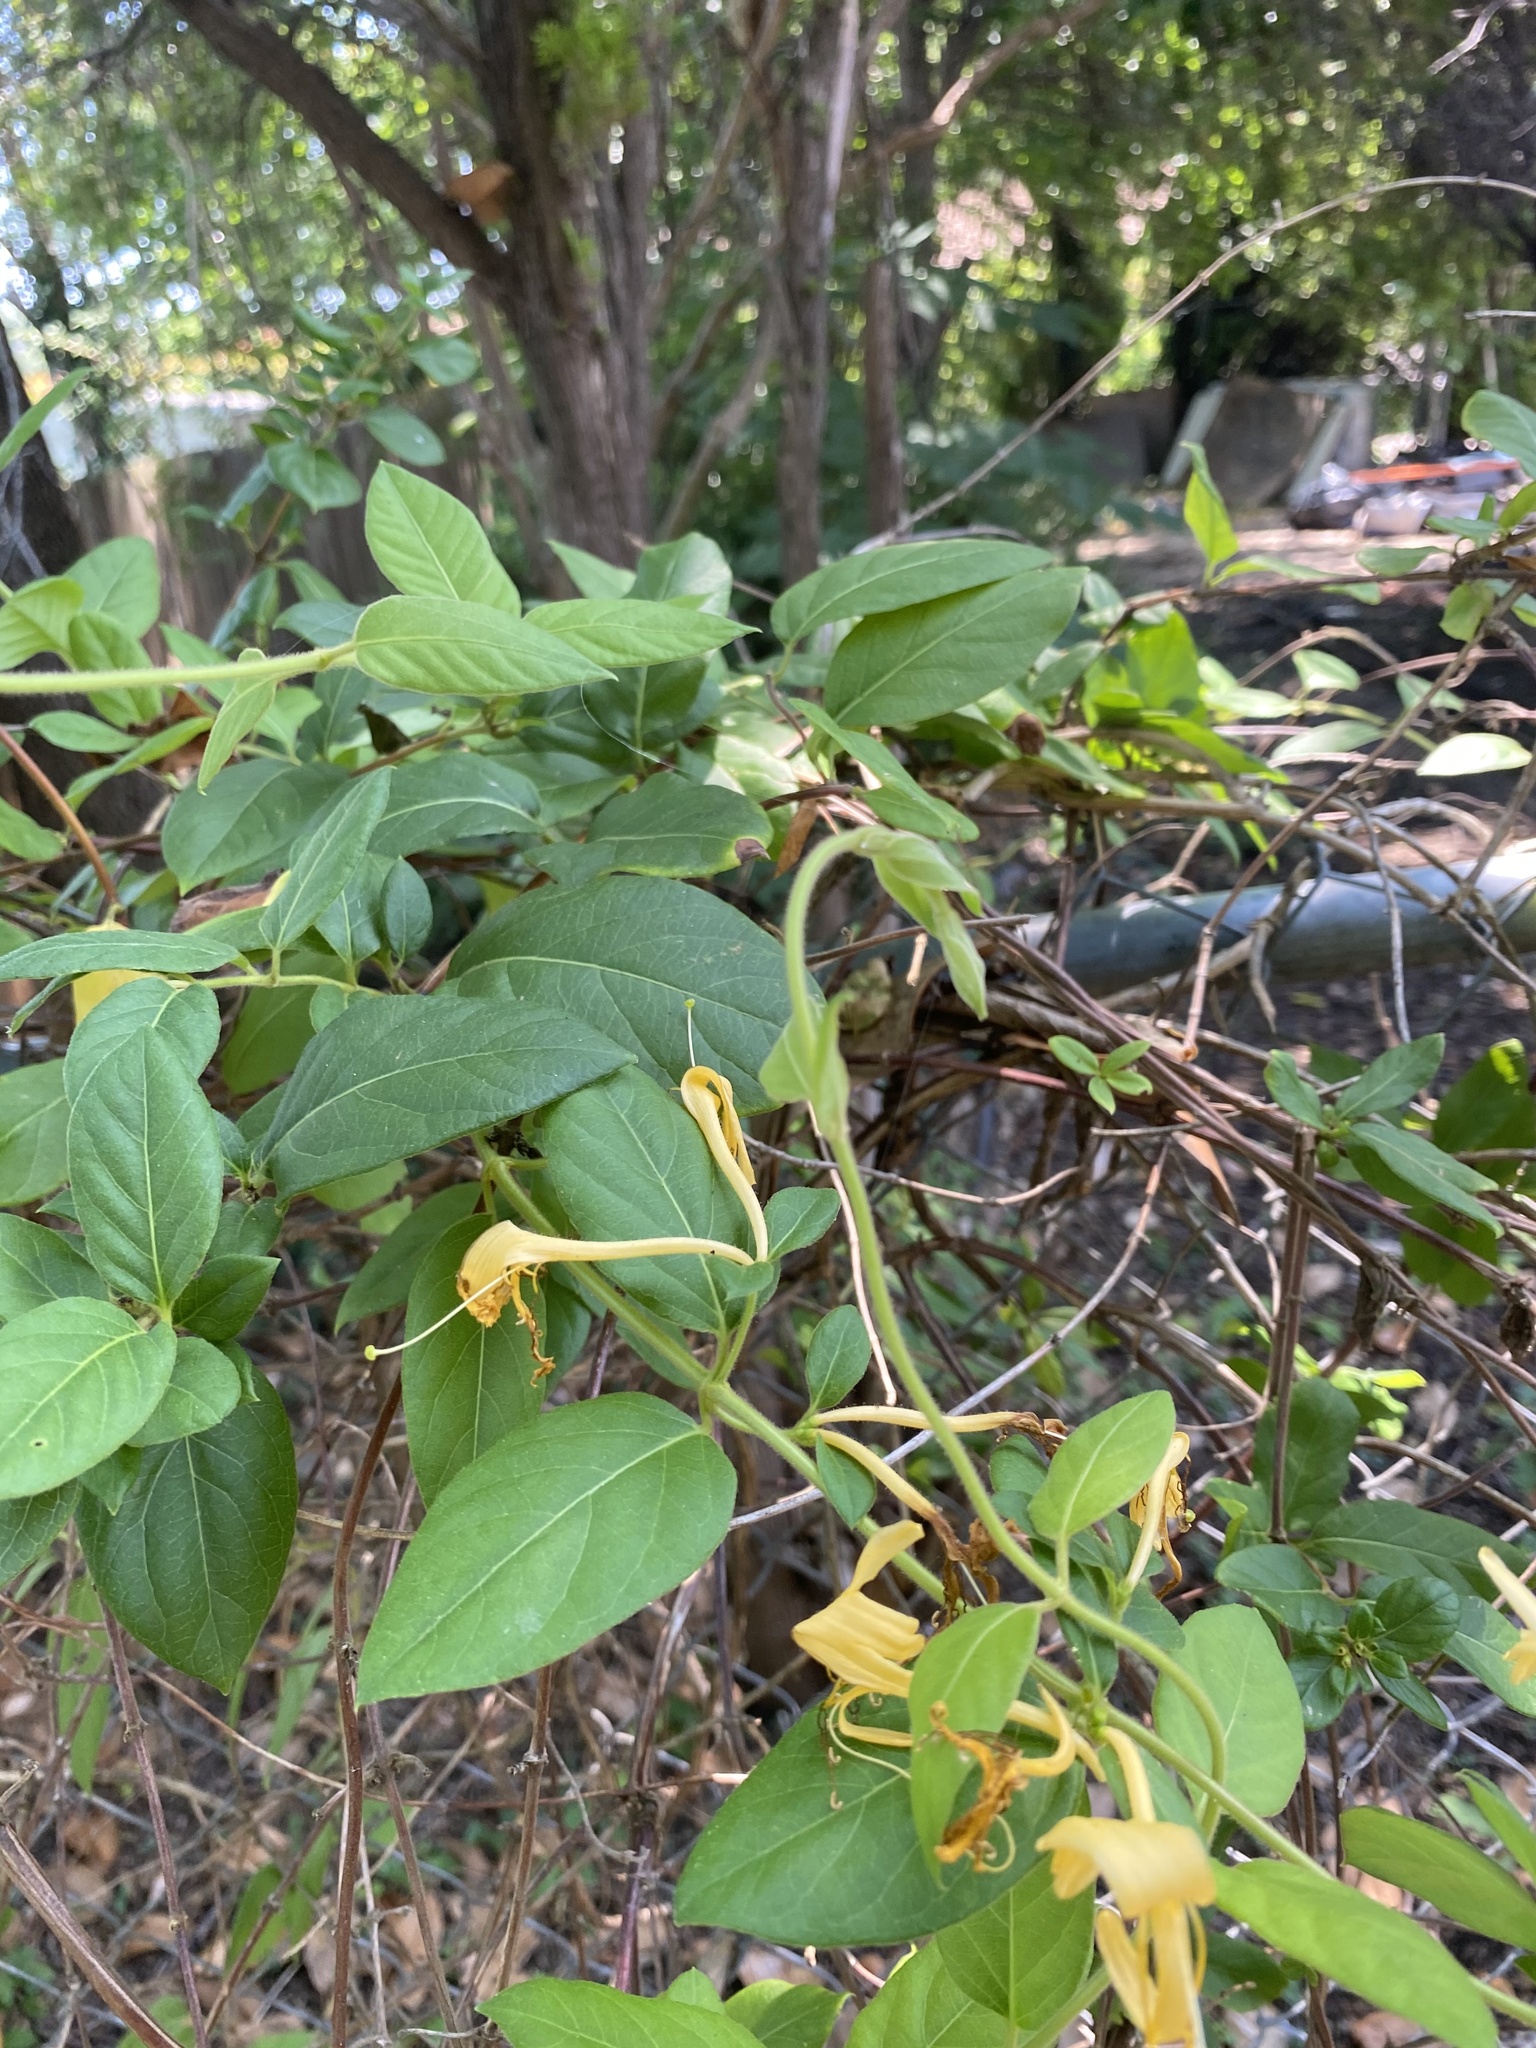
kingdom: Plantae
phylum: Tracheophyta
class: Magnoliopsida
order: Dipsacales
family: Caprifoliaceae
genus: Lonicera
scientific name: Lonicera japonica
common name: Japanese honeysuckle
